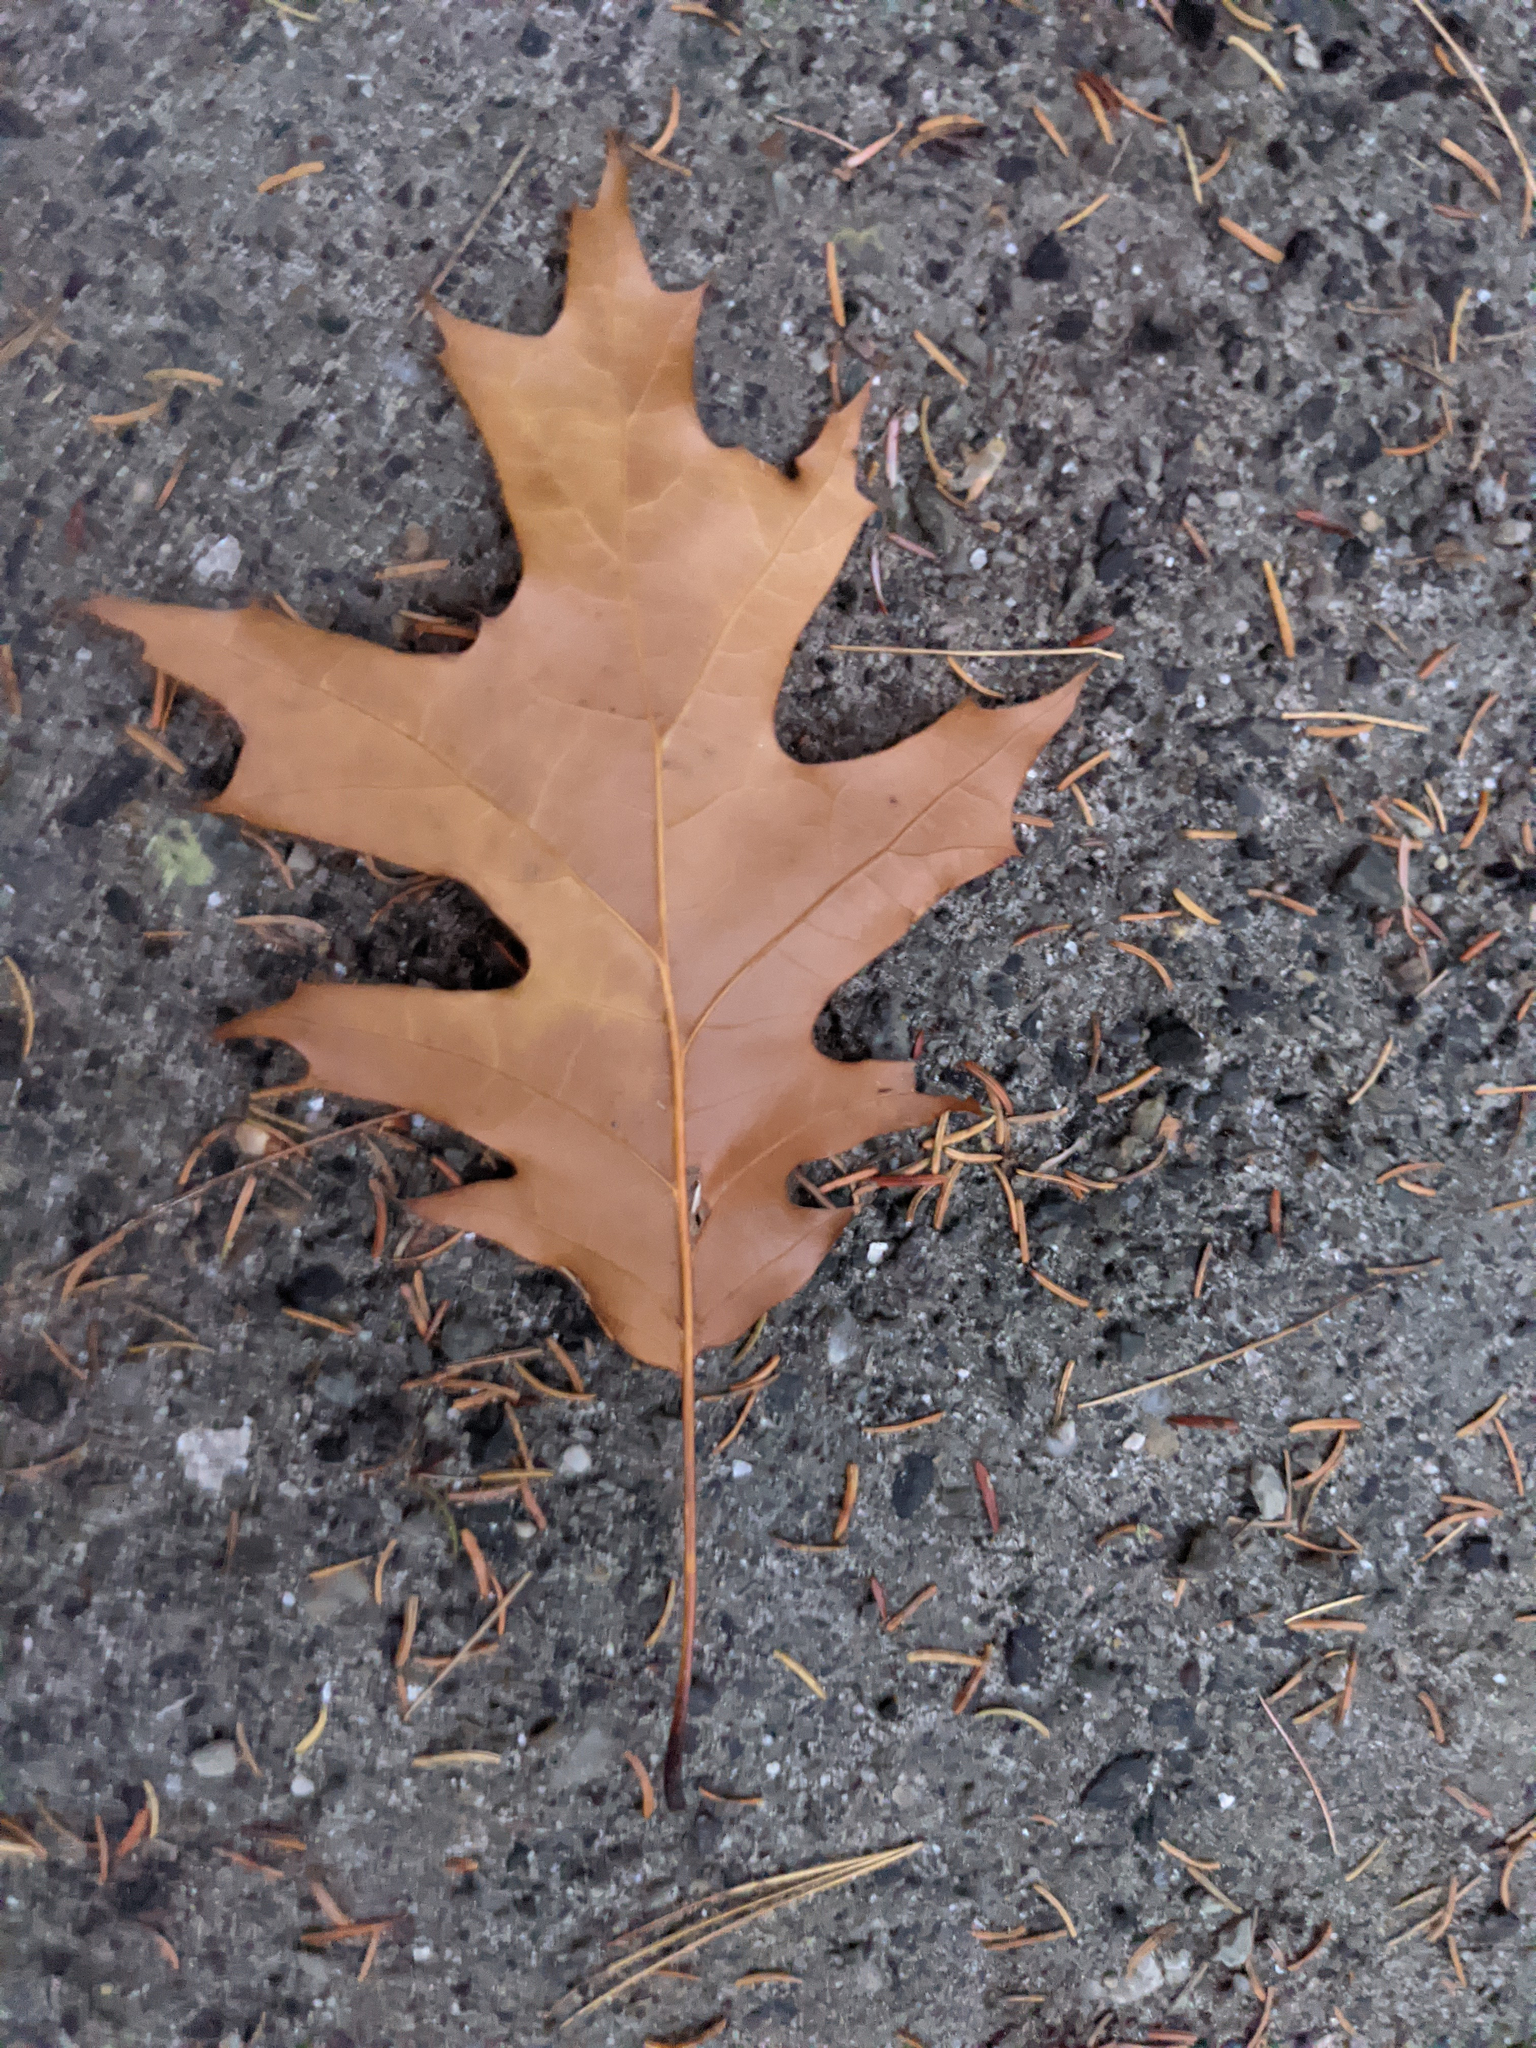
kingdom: Plantae
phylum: Tracheophyta
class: Magnoliopsida
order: Fagales
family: Fagaceae
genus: Quercus
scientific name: Quercus rubra
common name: Red oak
